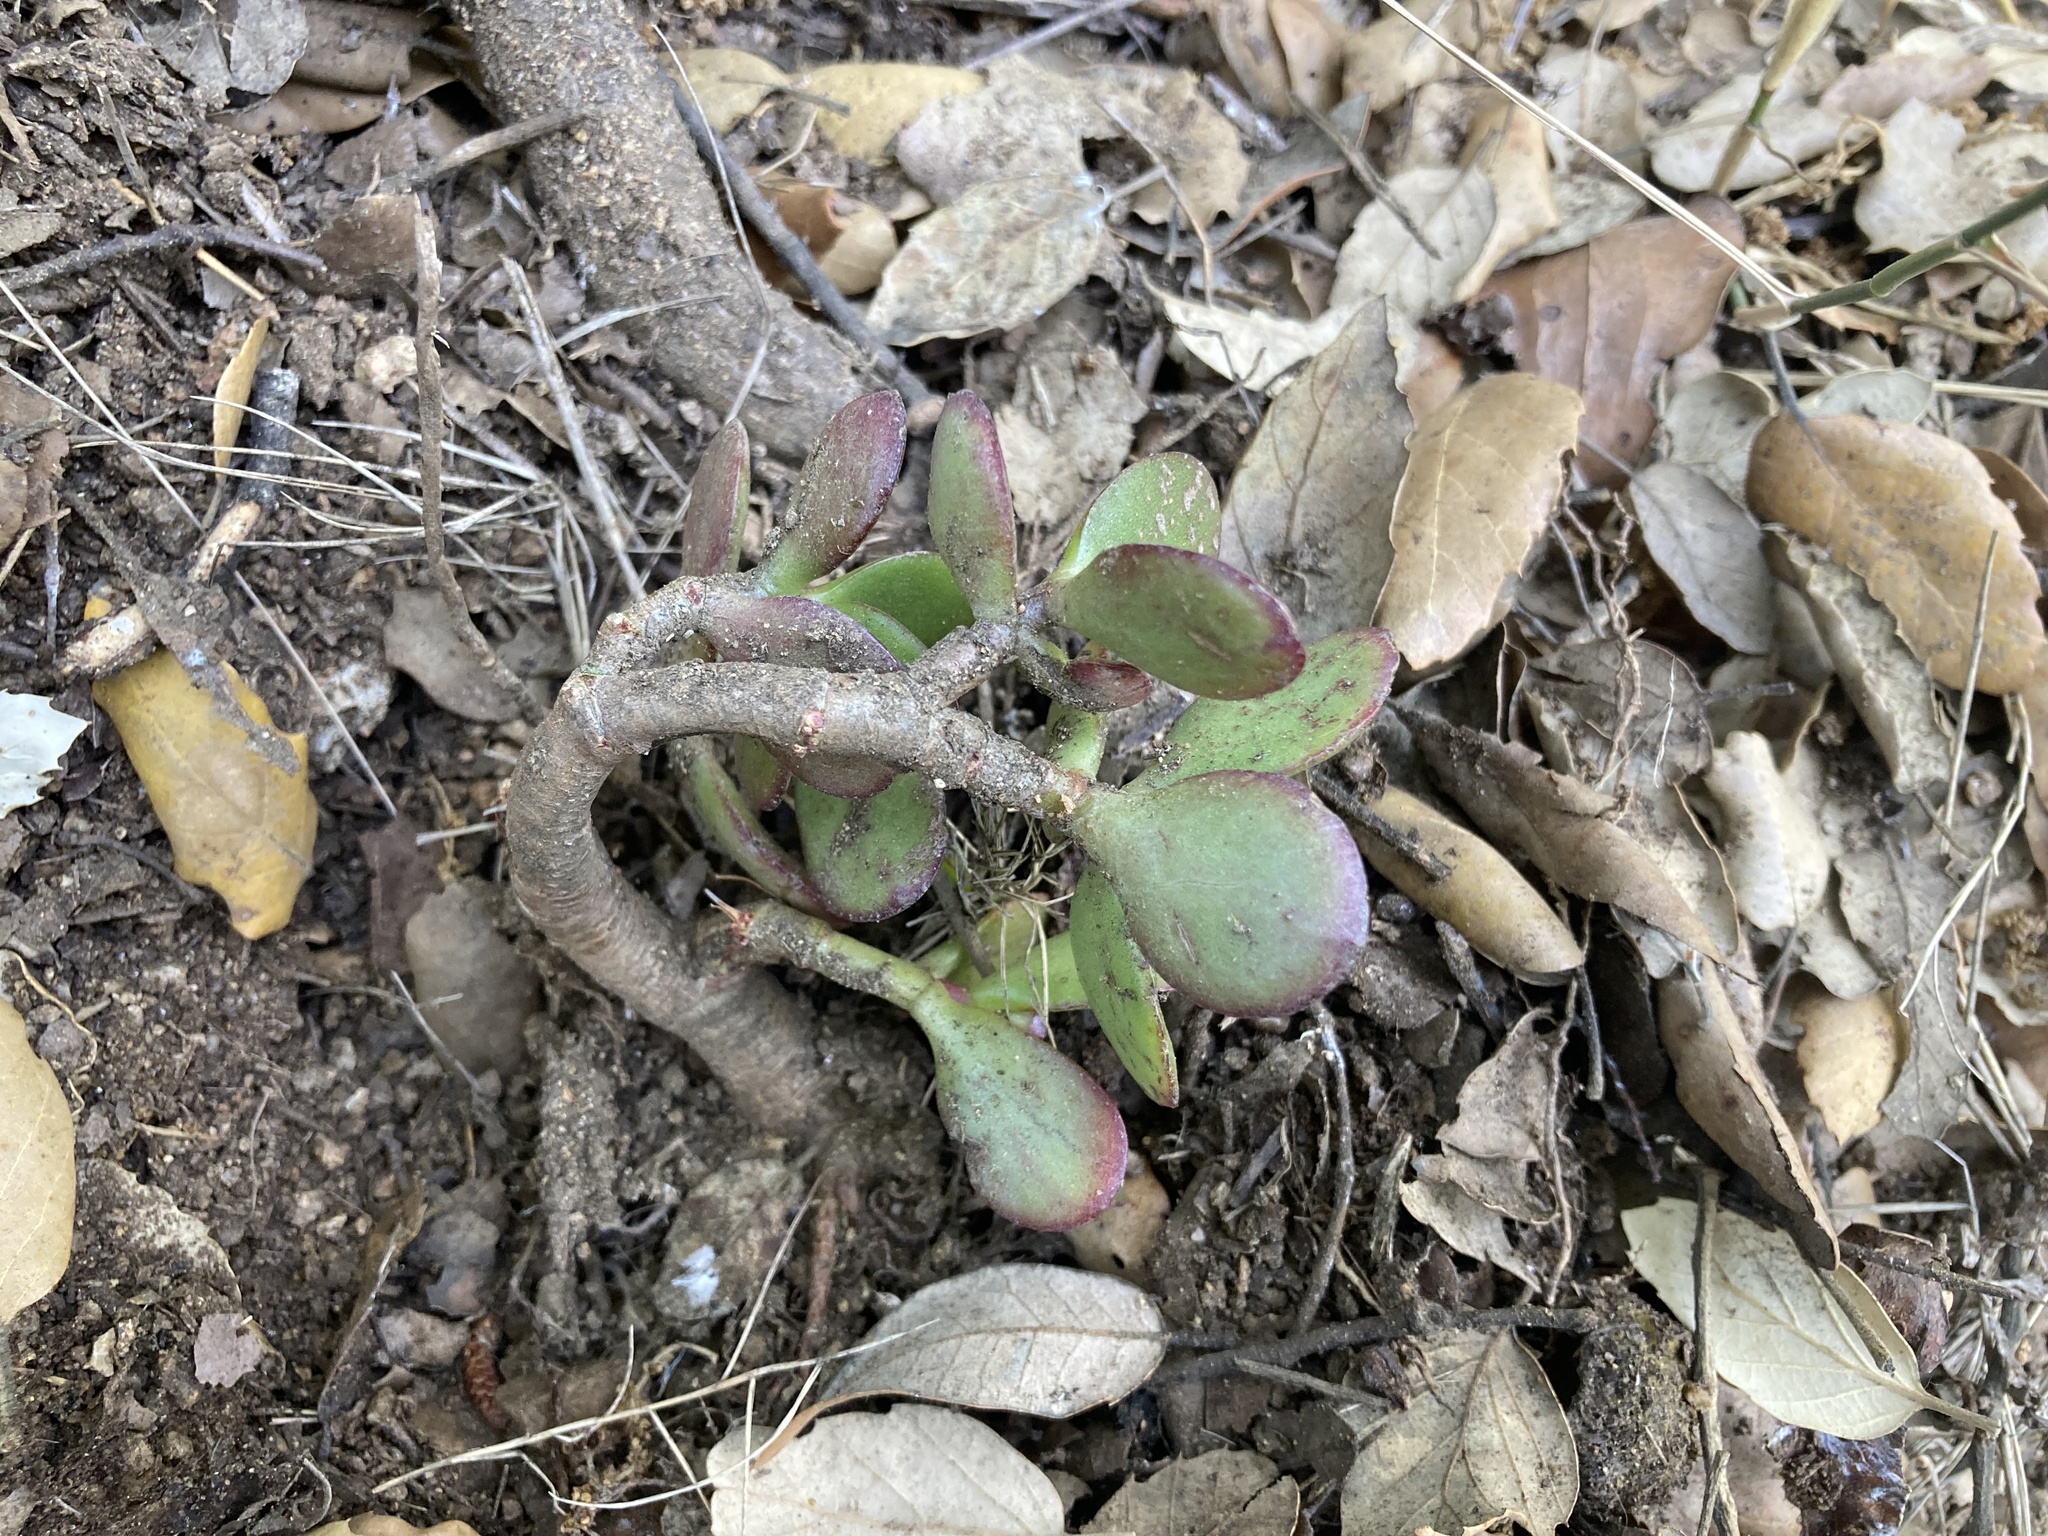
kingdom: Plantae
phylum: Tracheophyta
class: Magnoliopsida
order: Saxifragales
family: Crassulaceae
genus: Crassula
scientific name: Crassula ovata
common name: Jade plant
